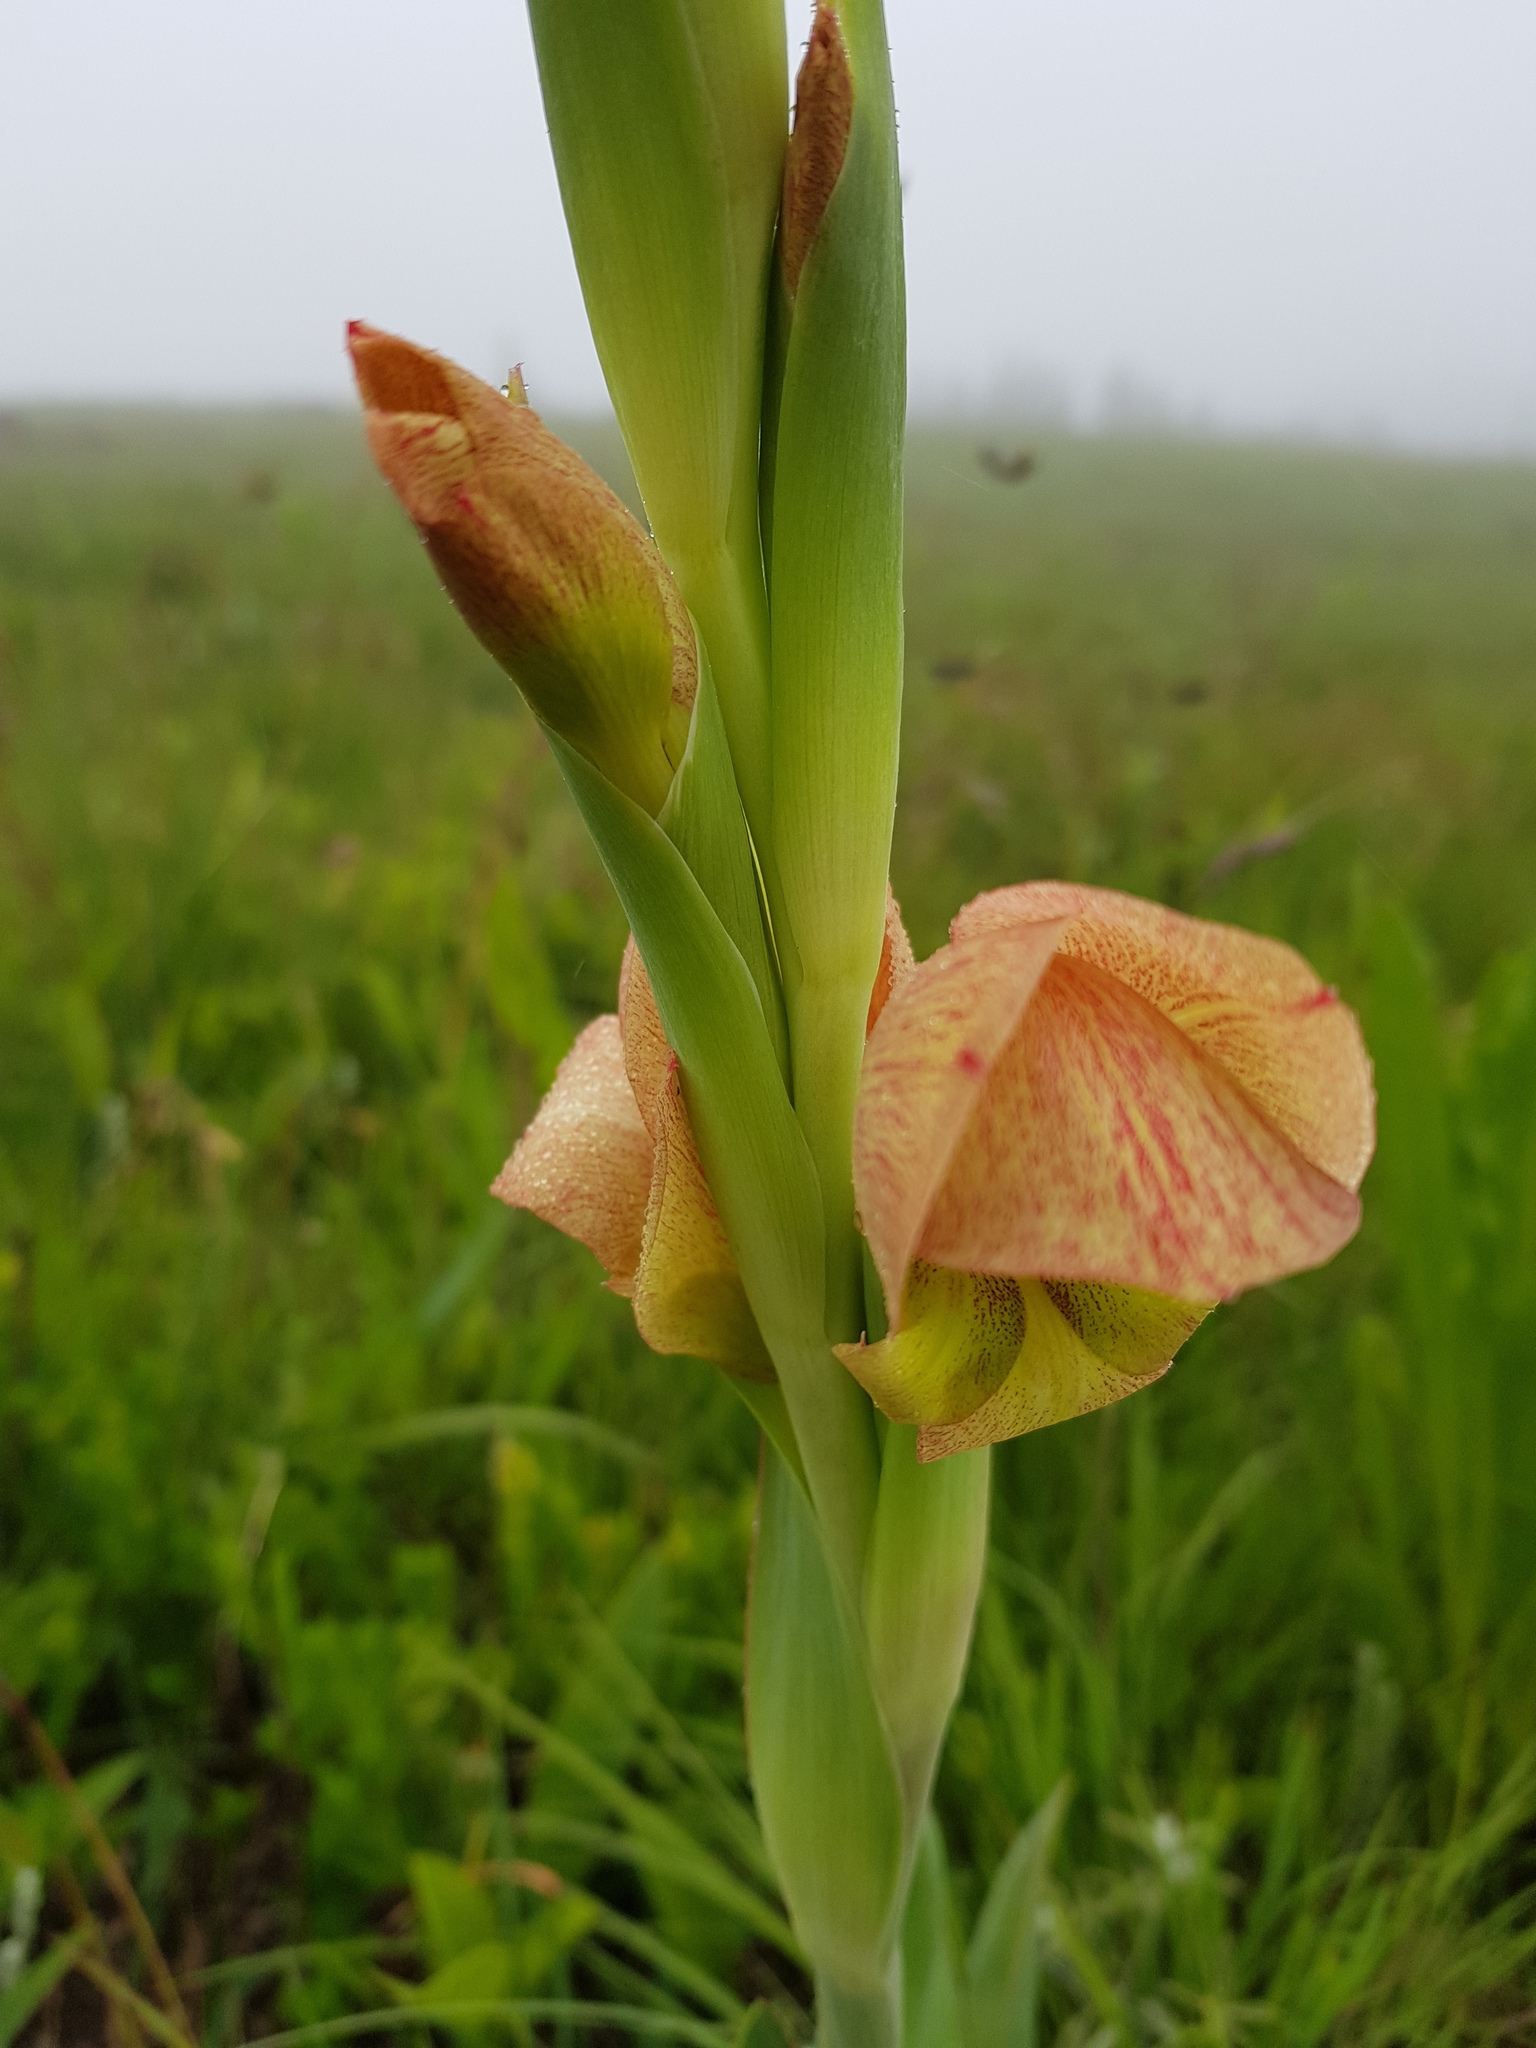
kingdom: Plantae
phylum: Tracheophyta
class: Liliopsida
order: Asparagales
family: Iridaceae
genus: Gladiolus
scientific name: Gladiolus dalenii
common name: Cornflag
